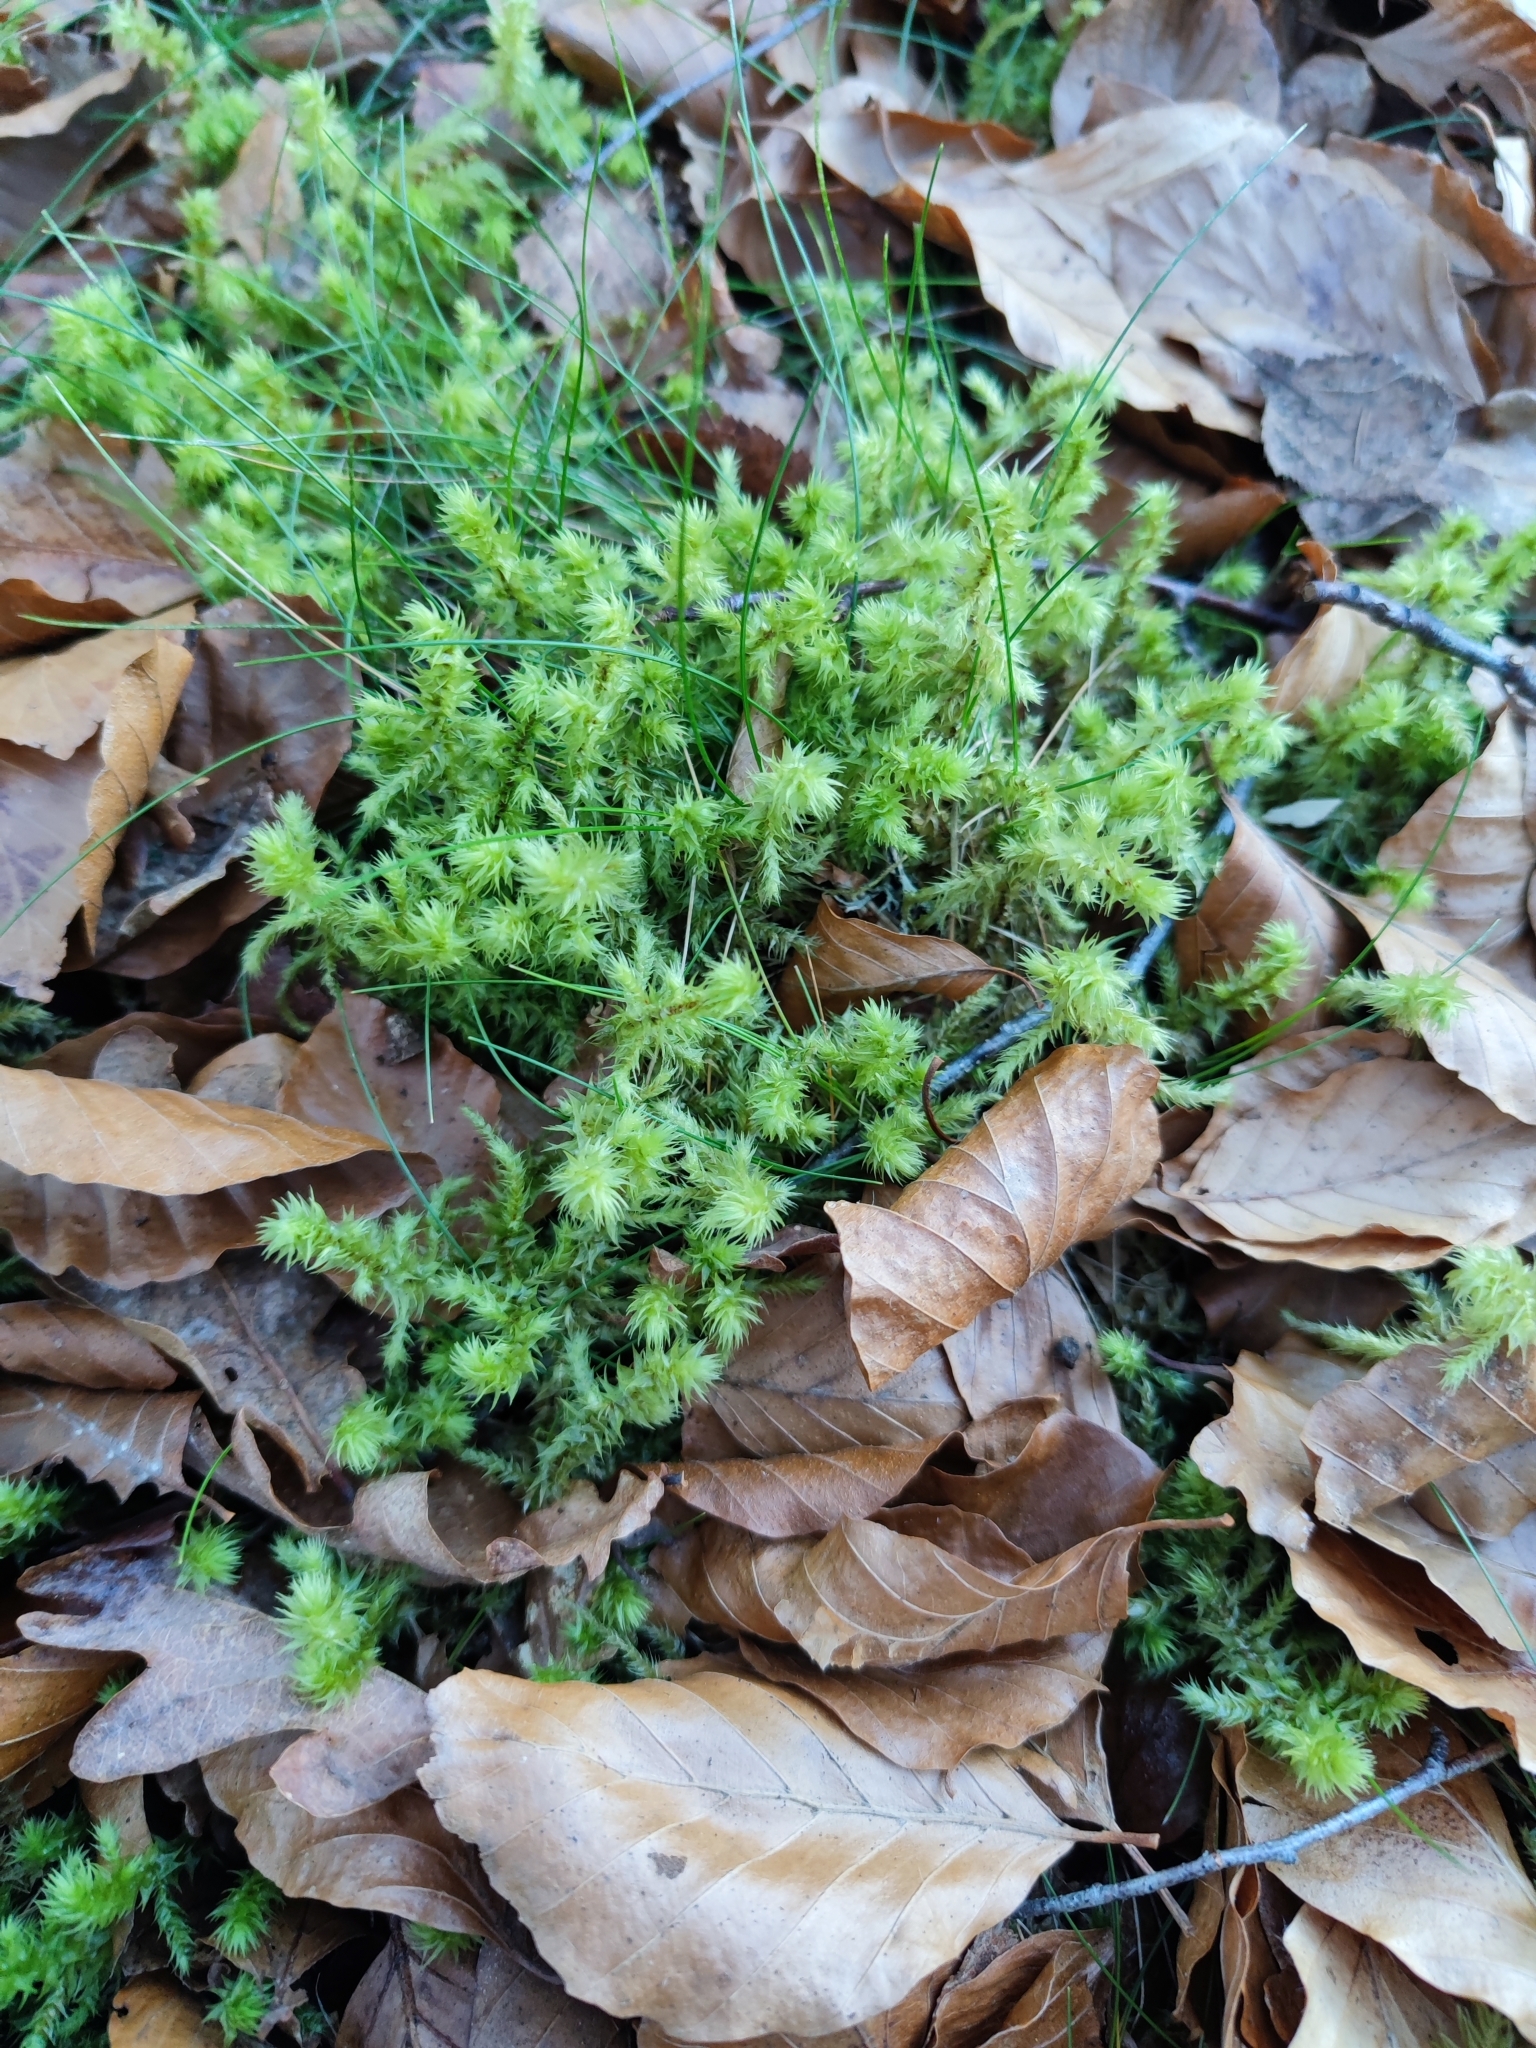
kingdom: Plantae
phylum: Bryophyta
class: Bryopsida
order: Hypnales
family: Hylocomiaceae
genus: Hylocomiadelphus
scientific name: Hylocomiadelphus triquetrus
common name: Rough goose neck moss
